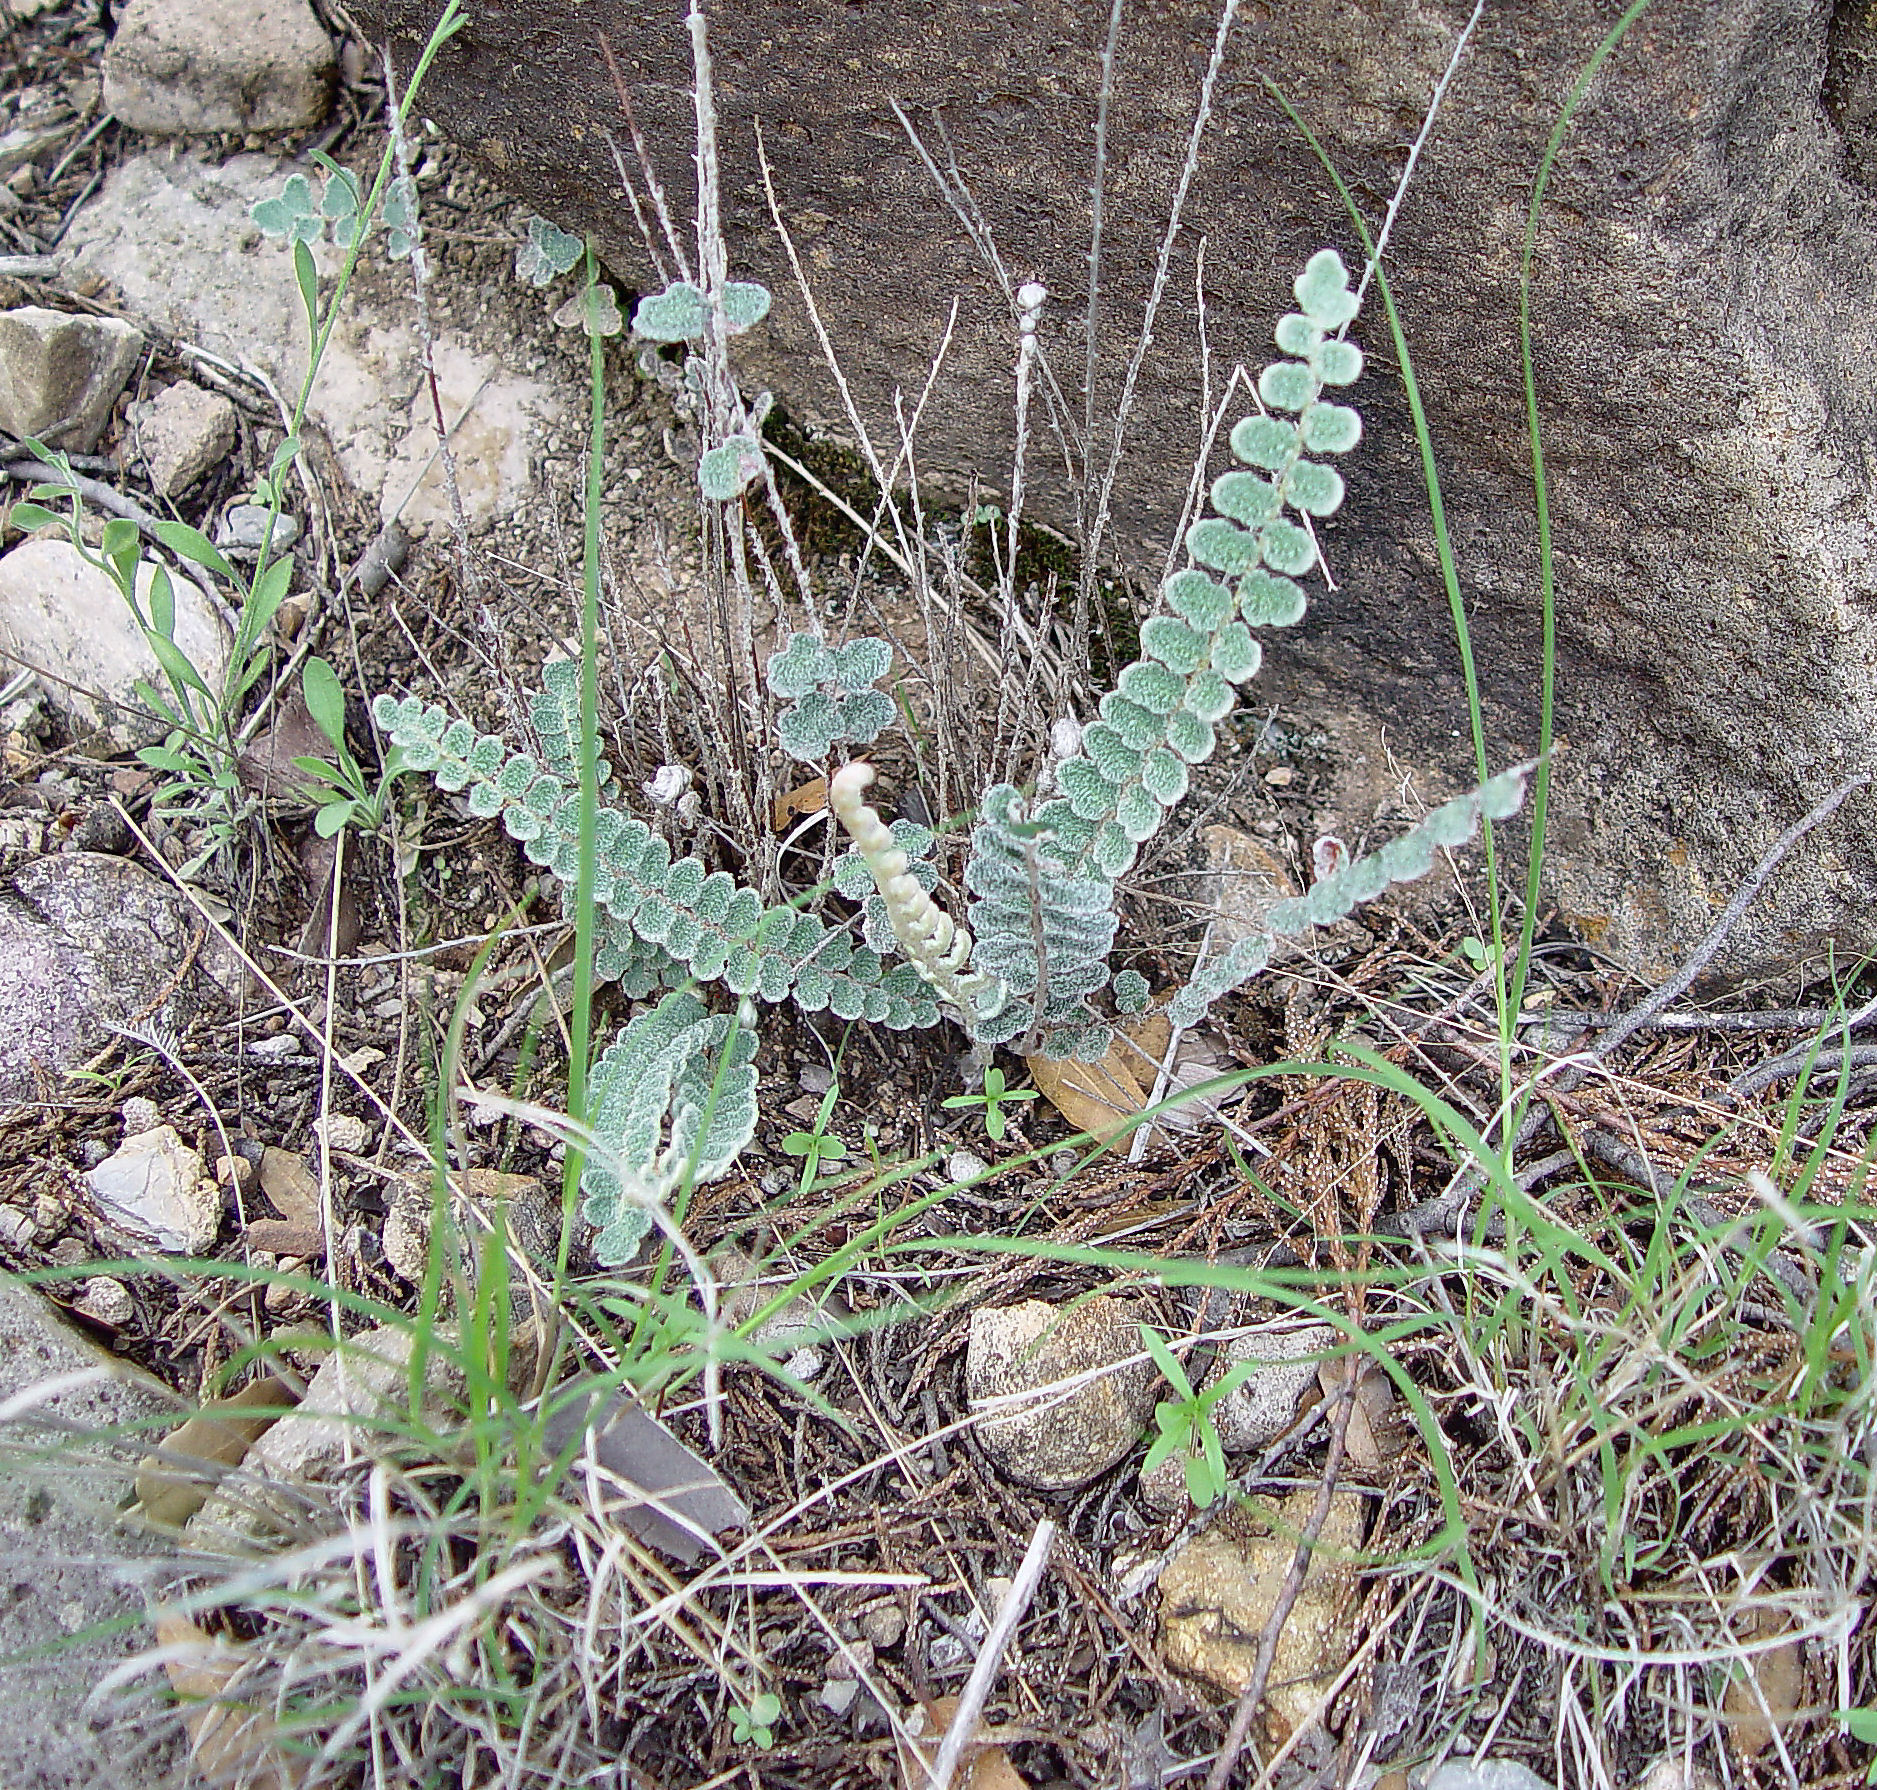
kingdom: Plantae
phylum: Tracheophyta
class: Polypodiopsida
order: Polypodiales
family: Pteridaceae
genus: Astrolepis
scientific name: Astrolepis integerrima
